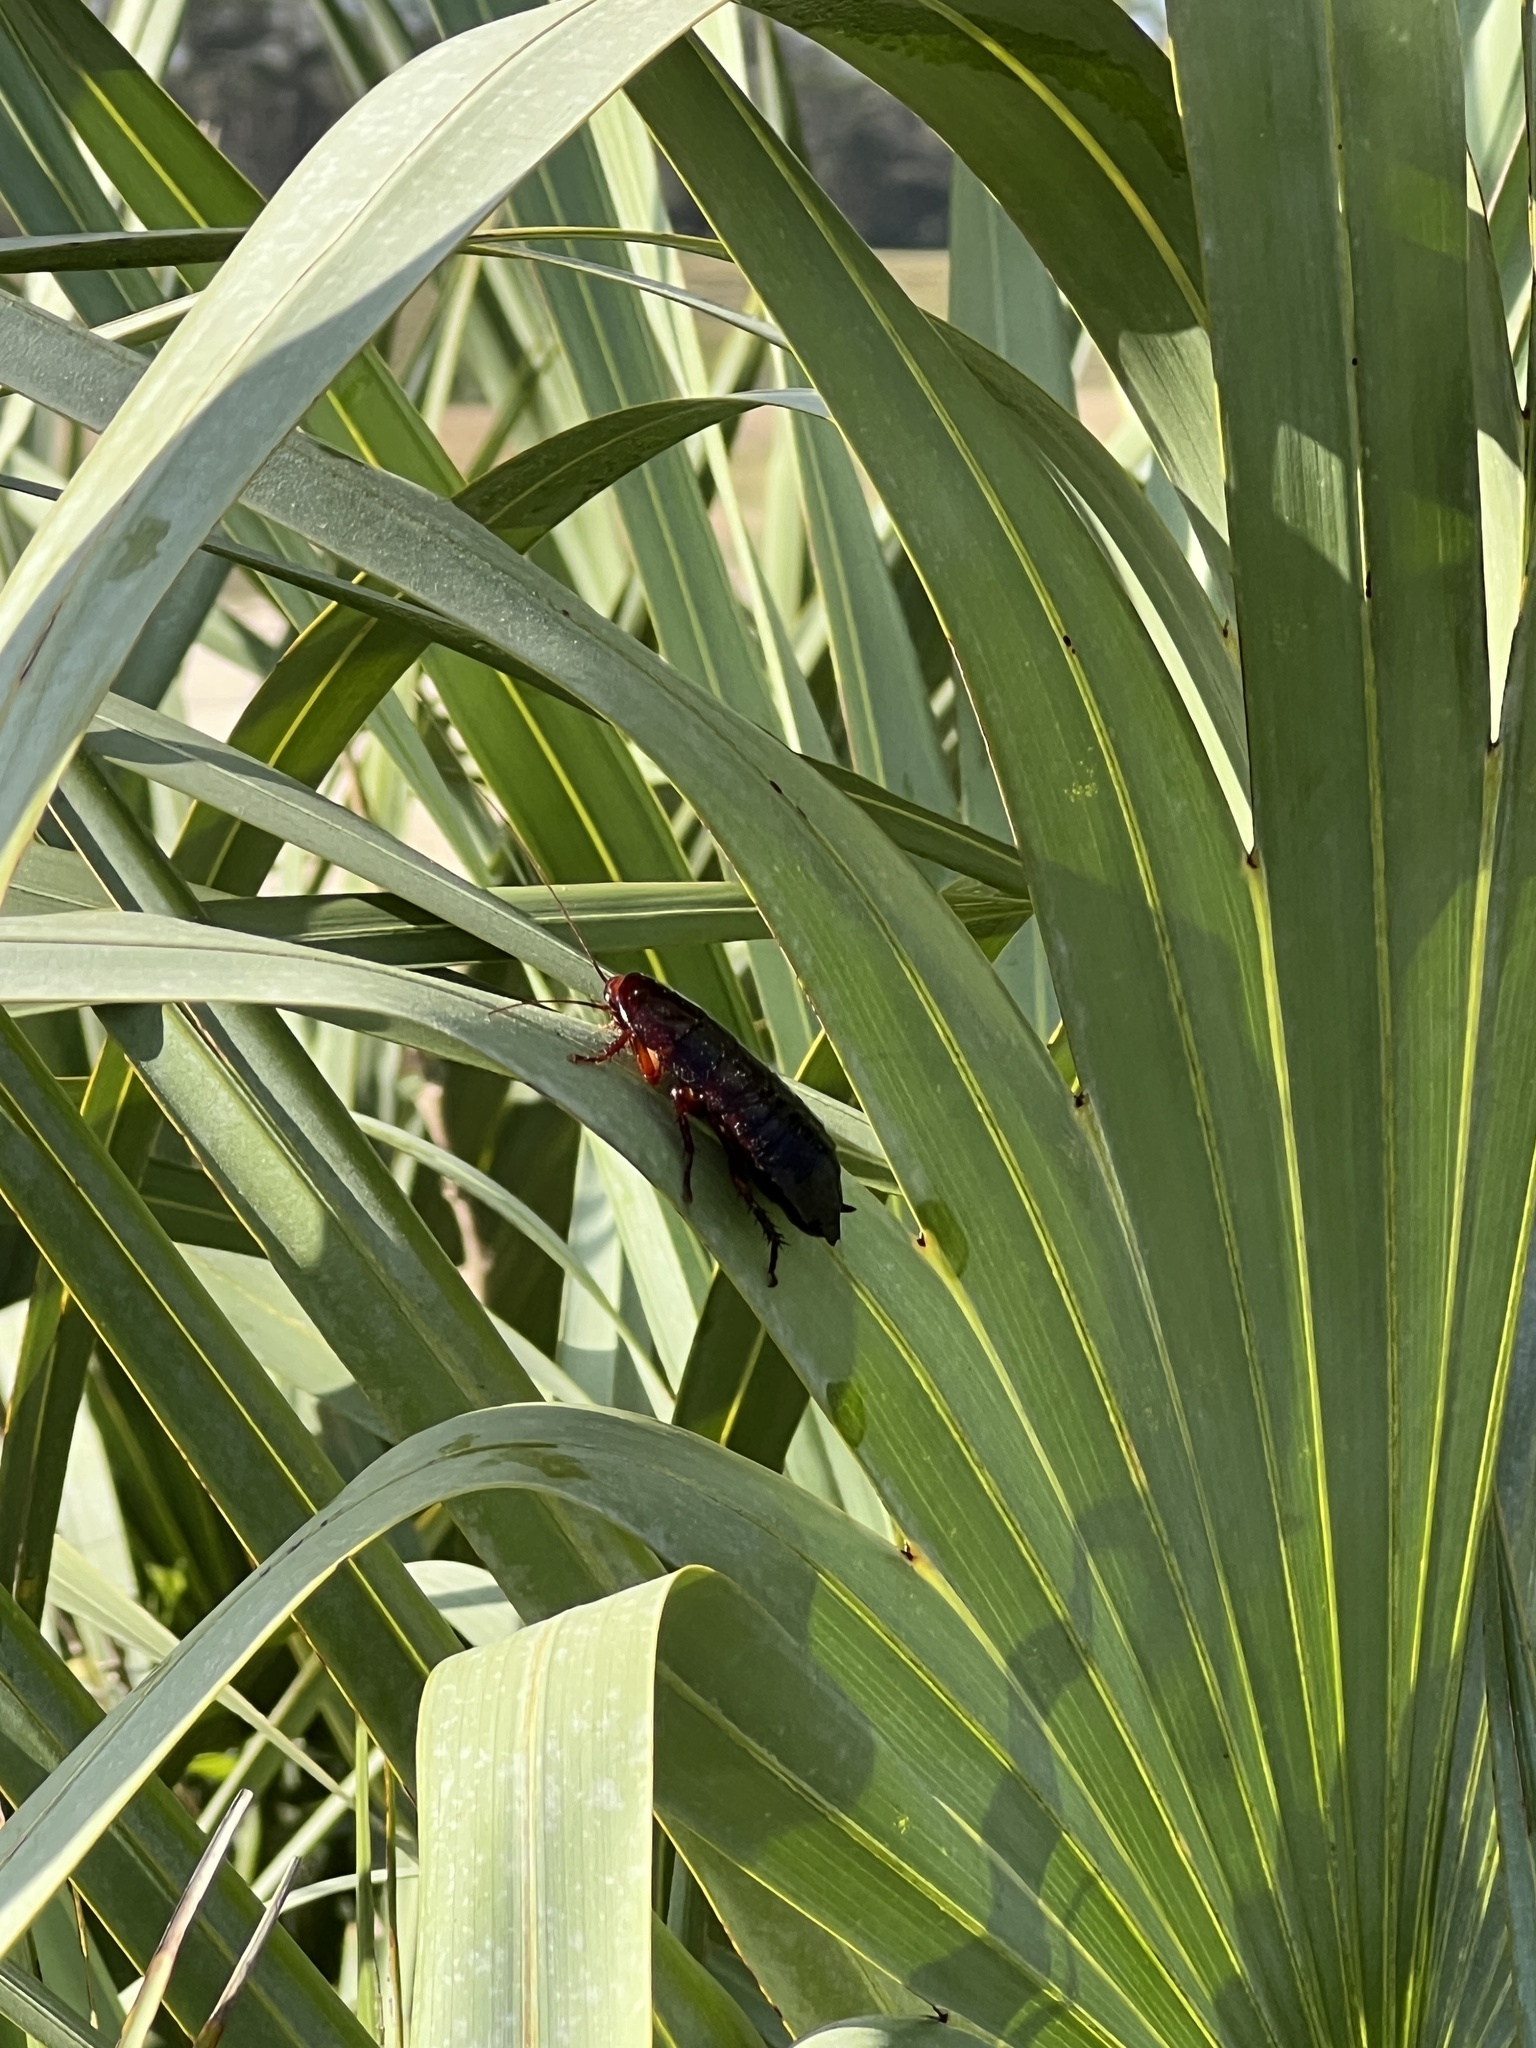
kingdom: Animalia
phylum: Arthropoda
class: Insecta
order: Blattodea
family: Blattidae
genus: Eurycotis
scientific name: Eurycotis floridana
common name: Florida cockroach
